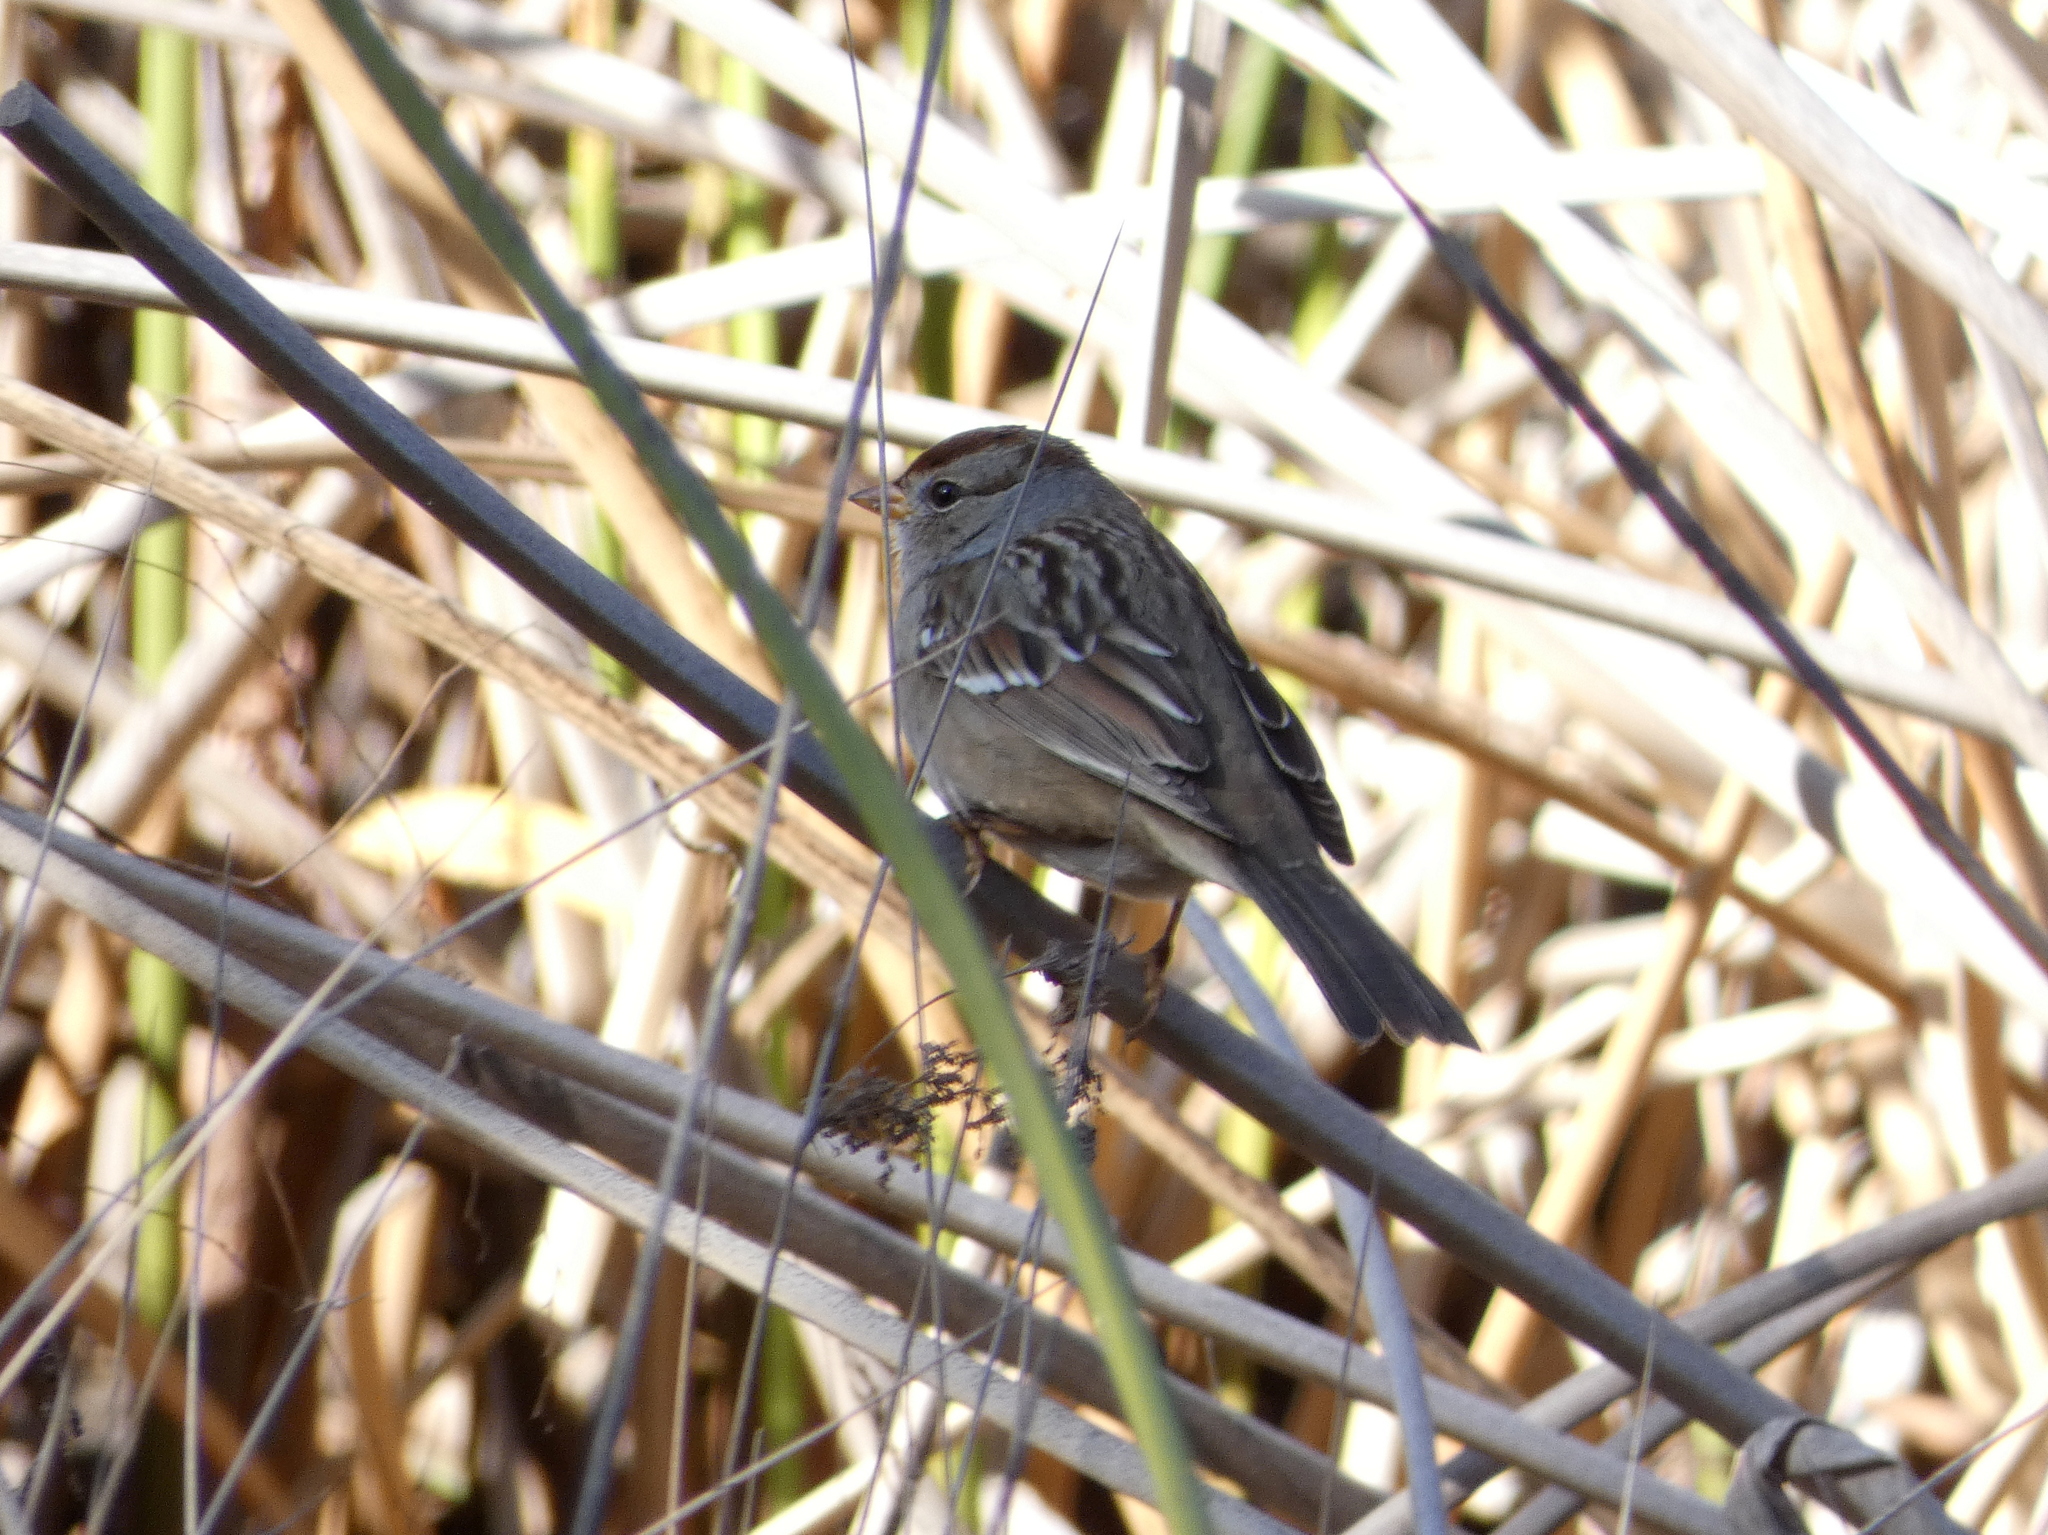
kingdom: Animalia
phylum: Chordata
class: Aves
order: Passeriformes
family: Passerellidae
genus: Zonotrichia
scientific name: Zonotrichia leucophrys
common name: White-crowned sparrow
